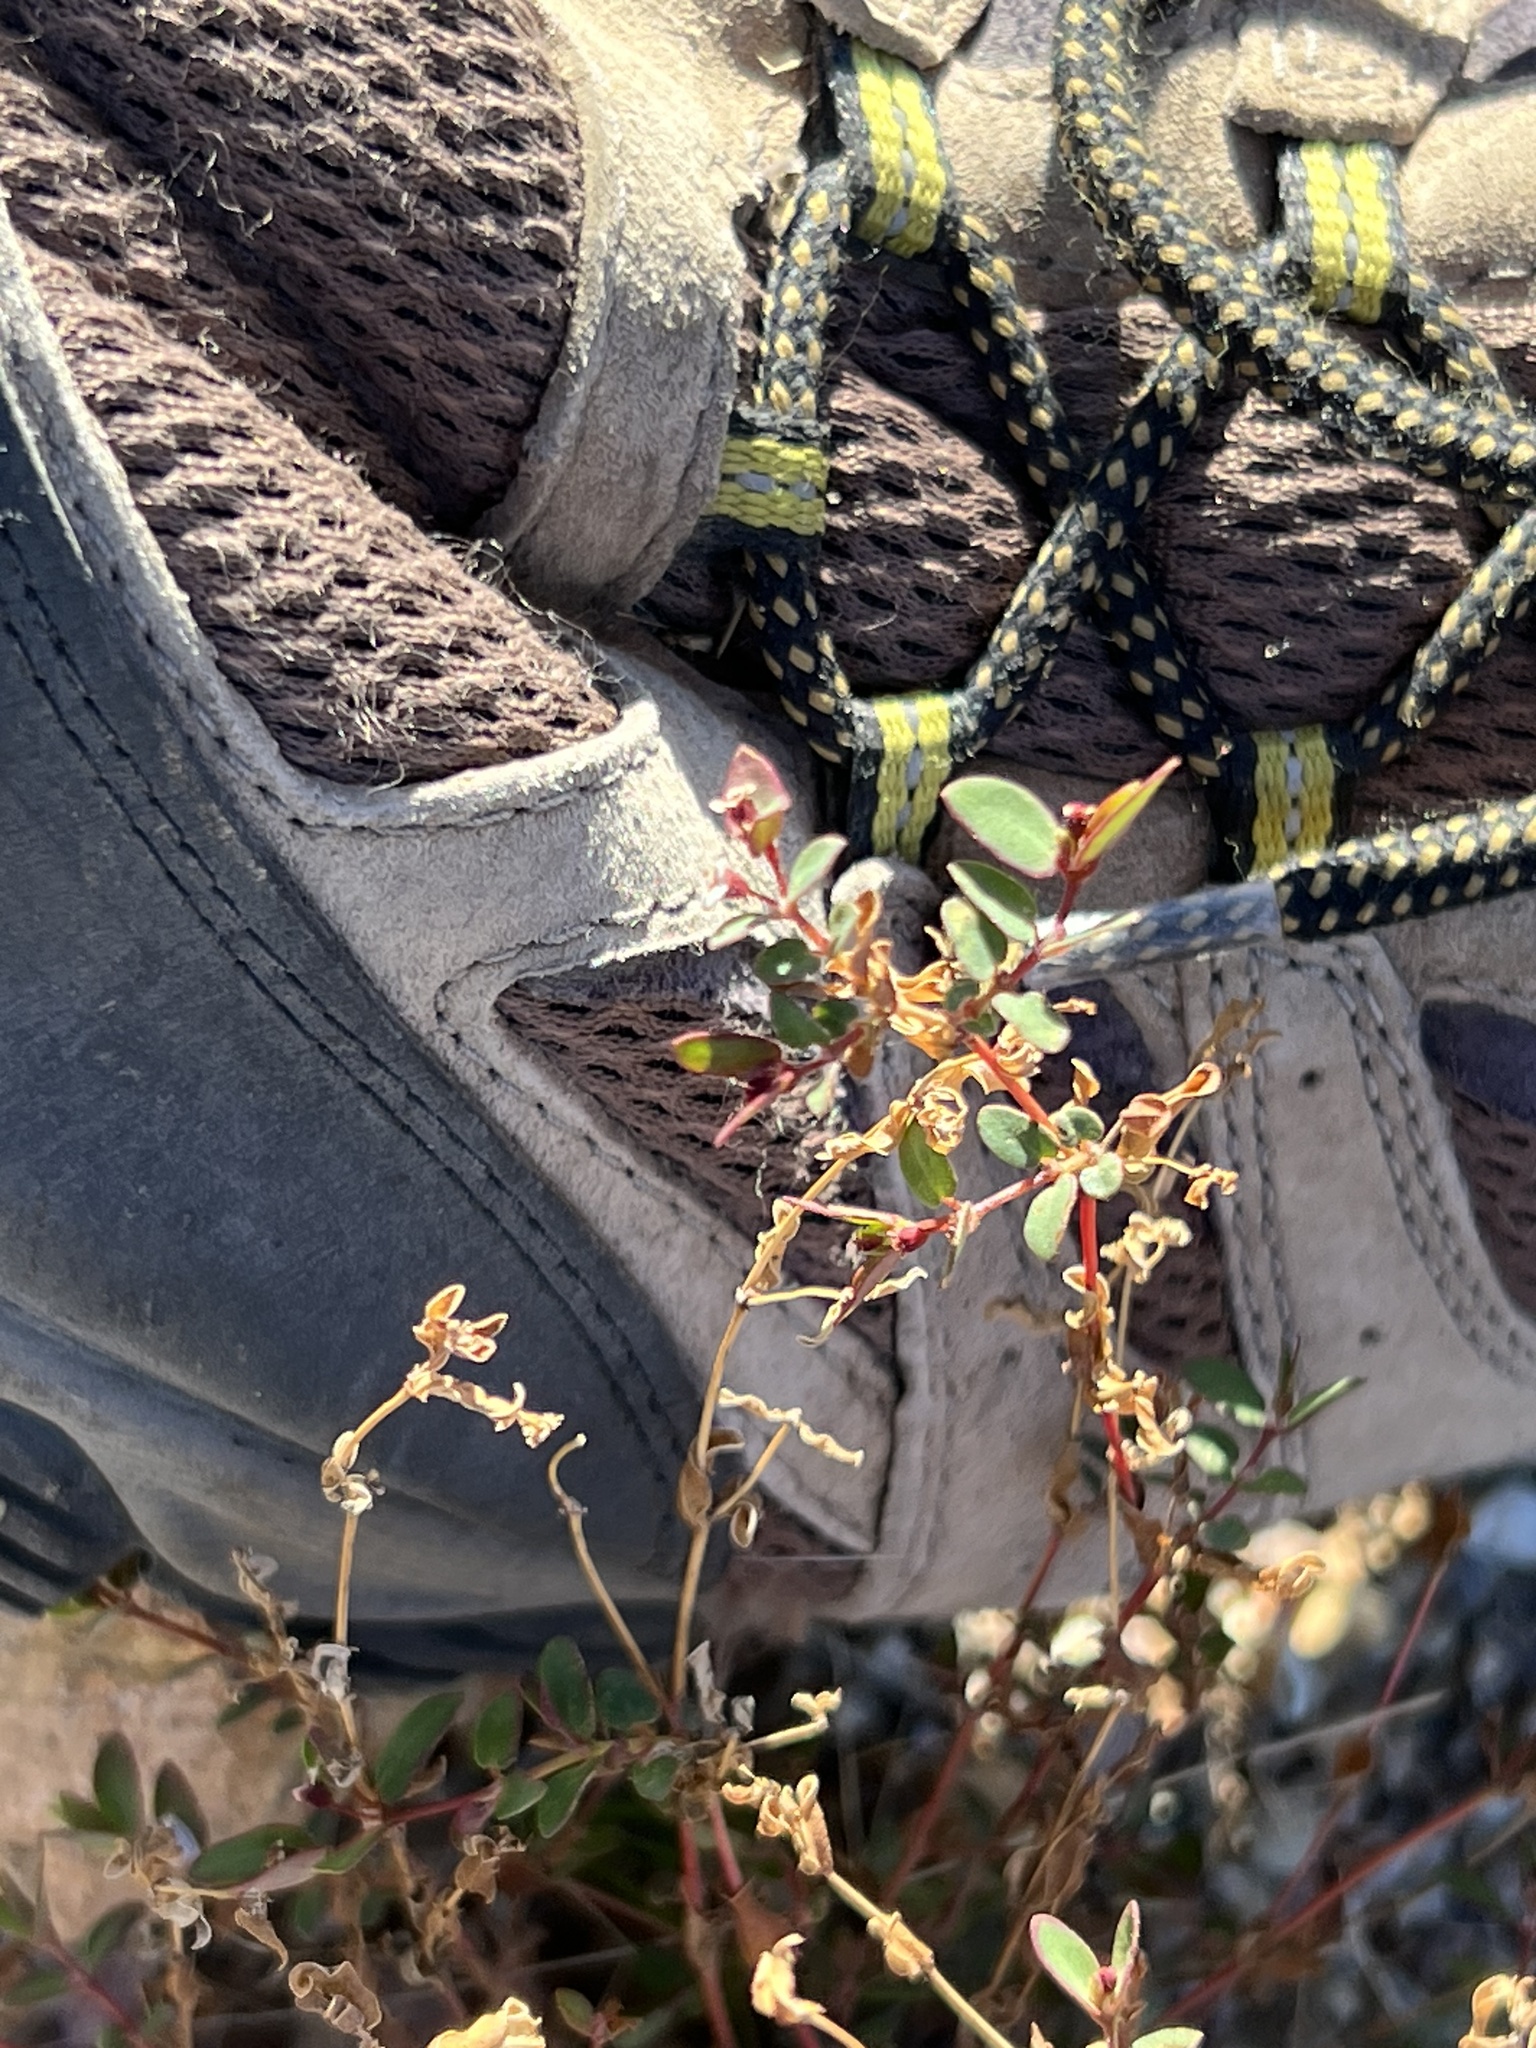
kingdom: Plantae
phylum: Tracheophyta
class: Magnoliopsida
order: Malpighiales
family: Euphorbiaceae
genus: Euphorbia
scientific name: Euphorbia capitellata
